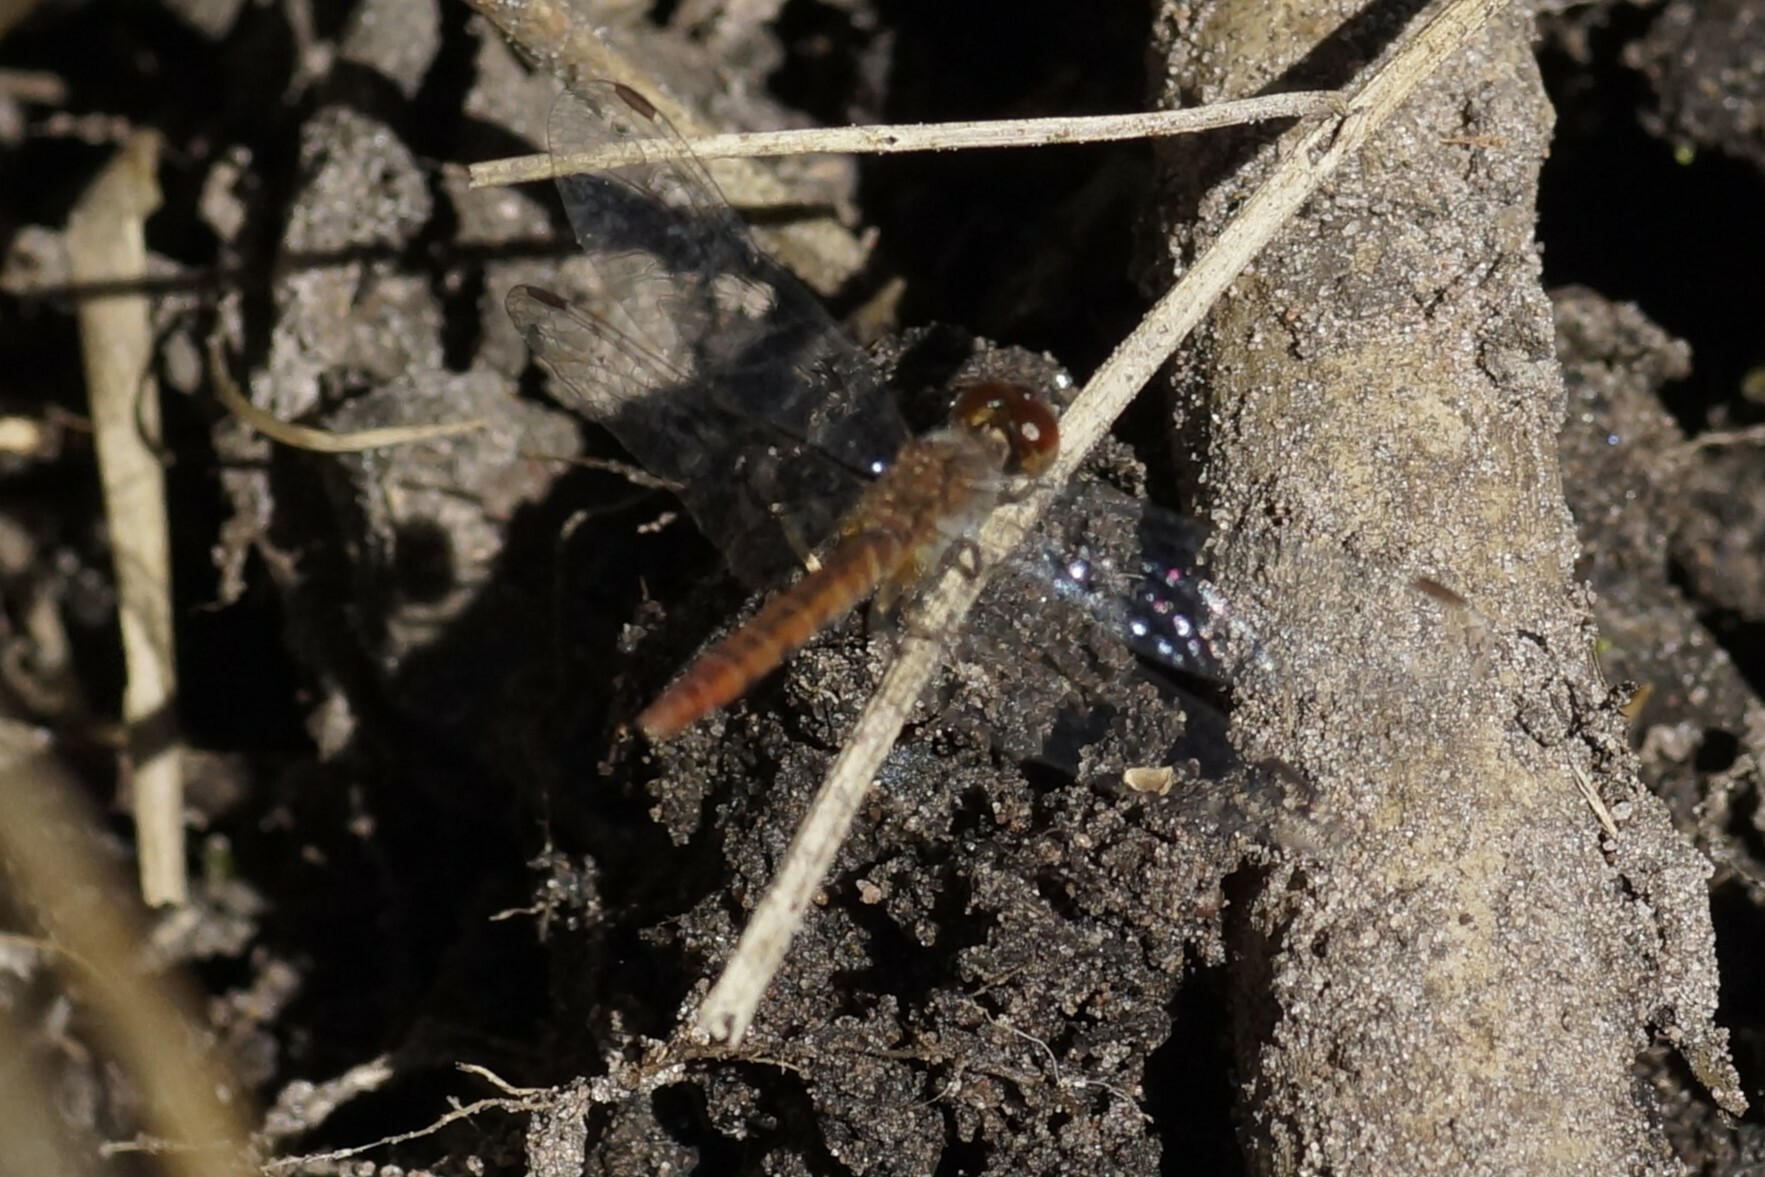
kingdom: Animalia
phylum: Arthropoda
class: Insecta
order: Odonata
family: Libellulidae
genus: Nannodiplax
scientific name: Nannodiplax rubra
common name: Pygmy percher
